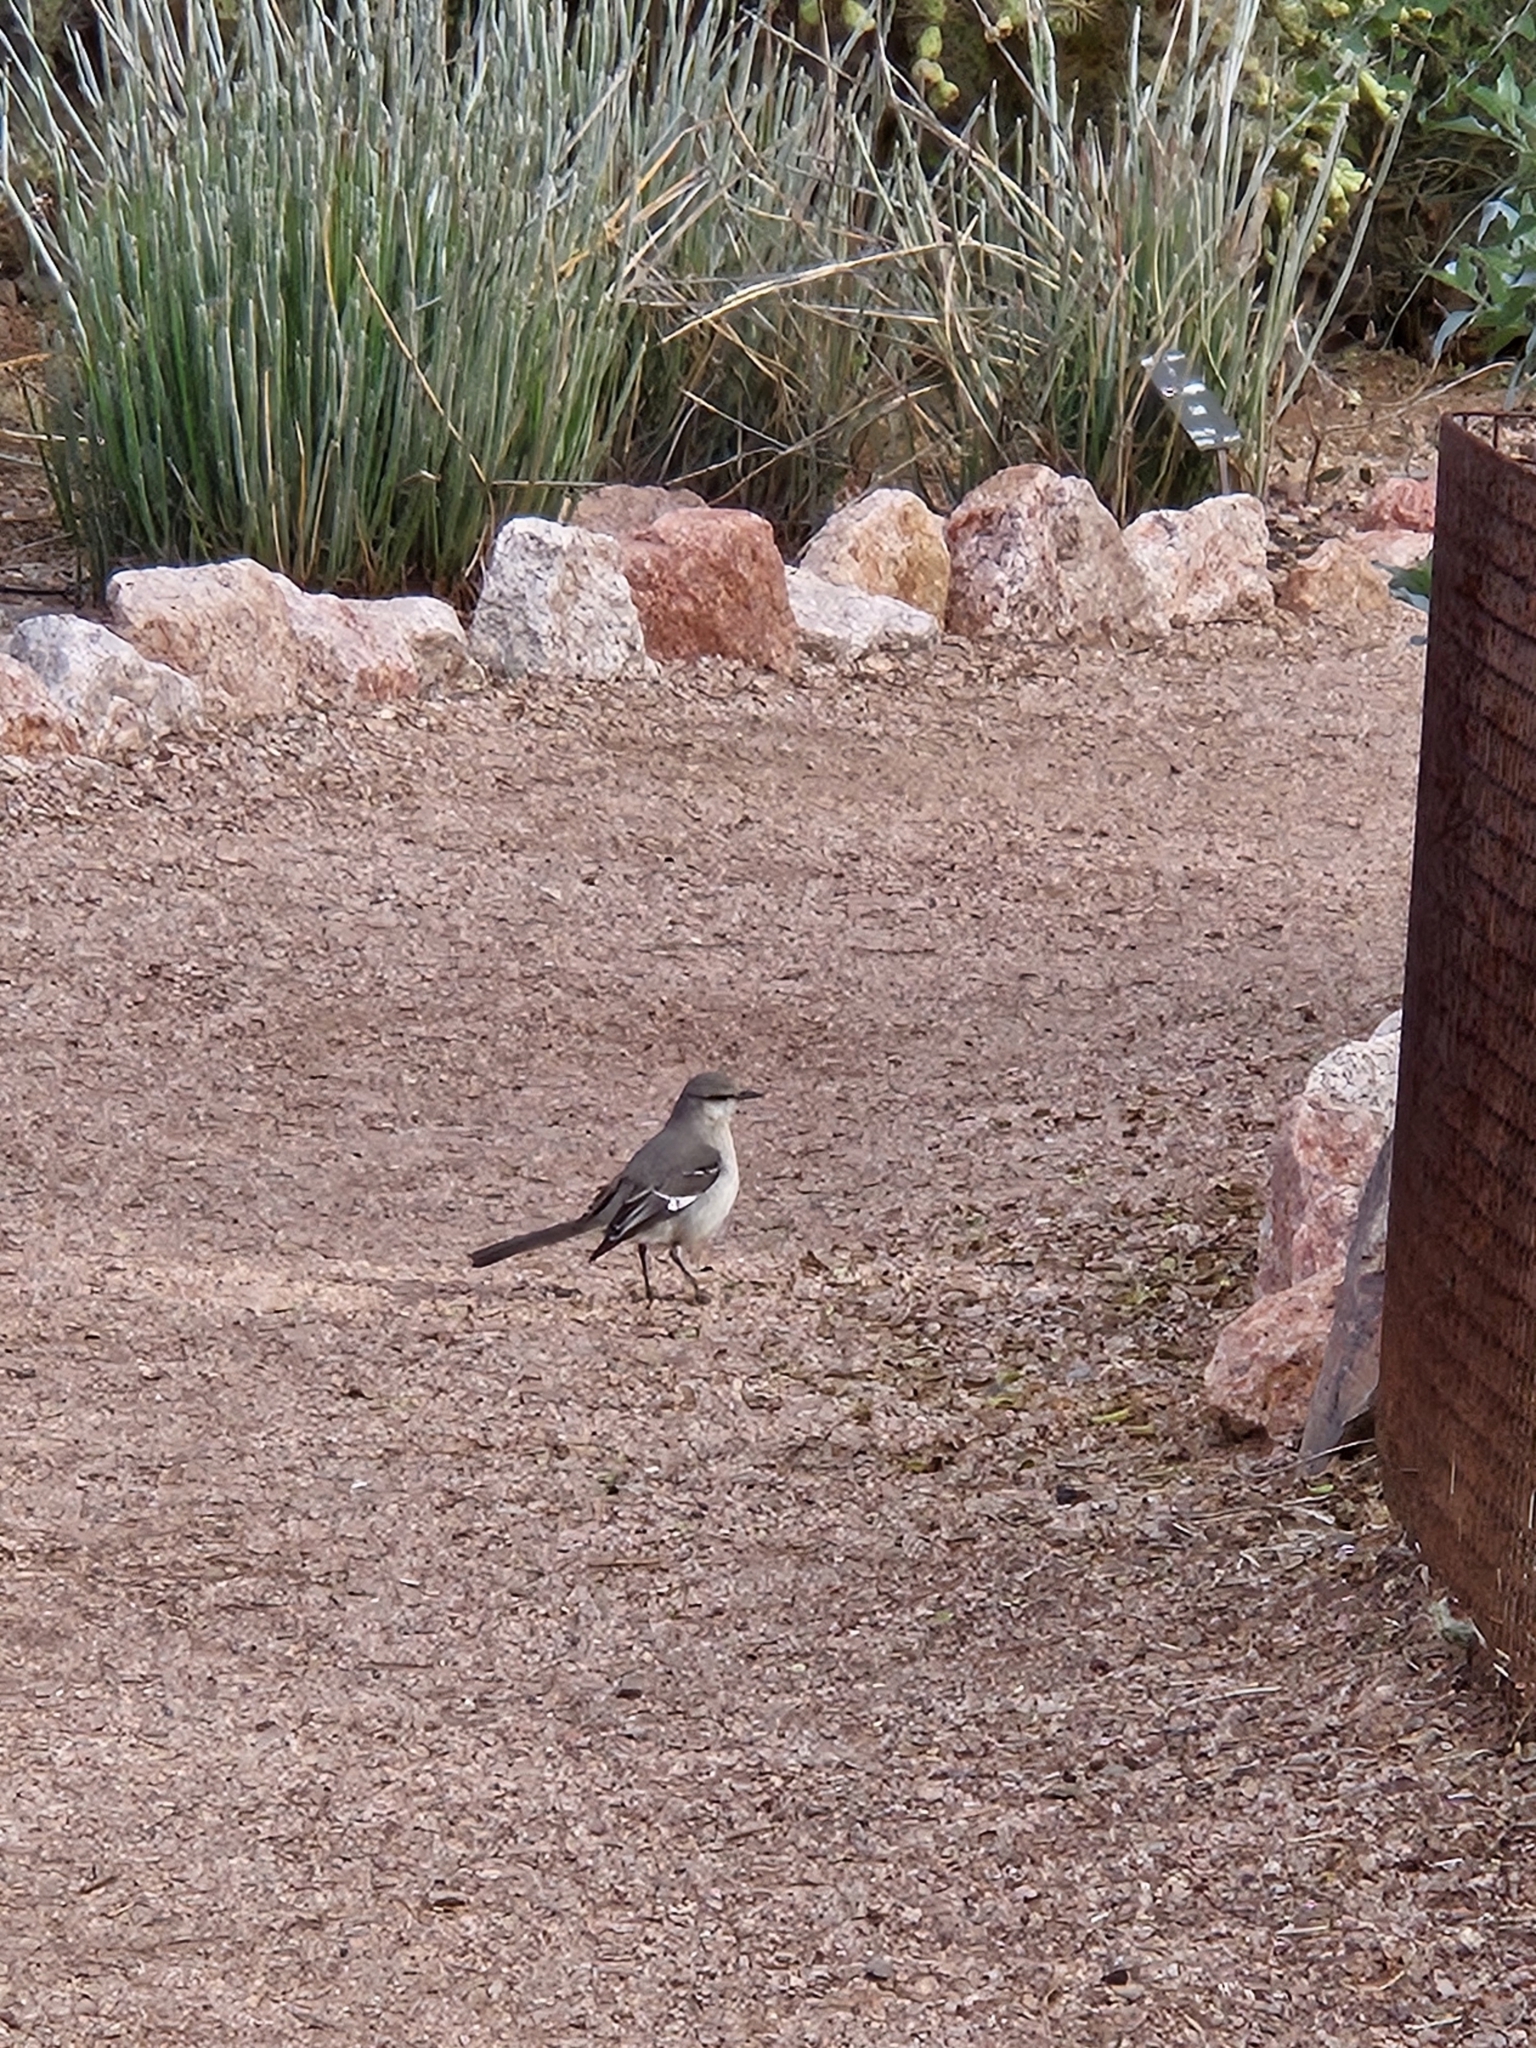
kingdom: Animalia
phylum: Chordata
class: Aves
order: Passeriformes
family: Mimidae
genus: Mimus
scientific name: Mimus polyglottos
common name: Northern mockingbird
